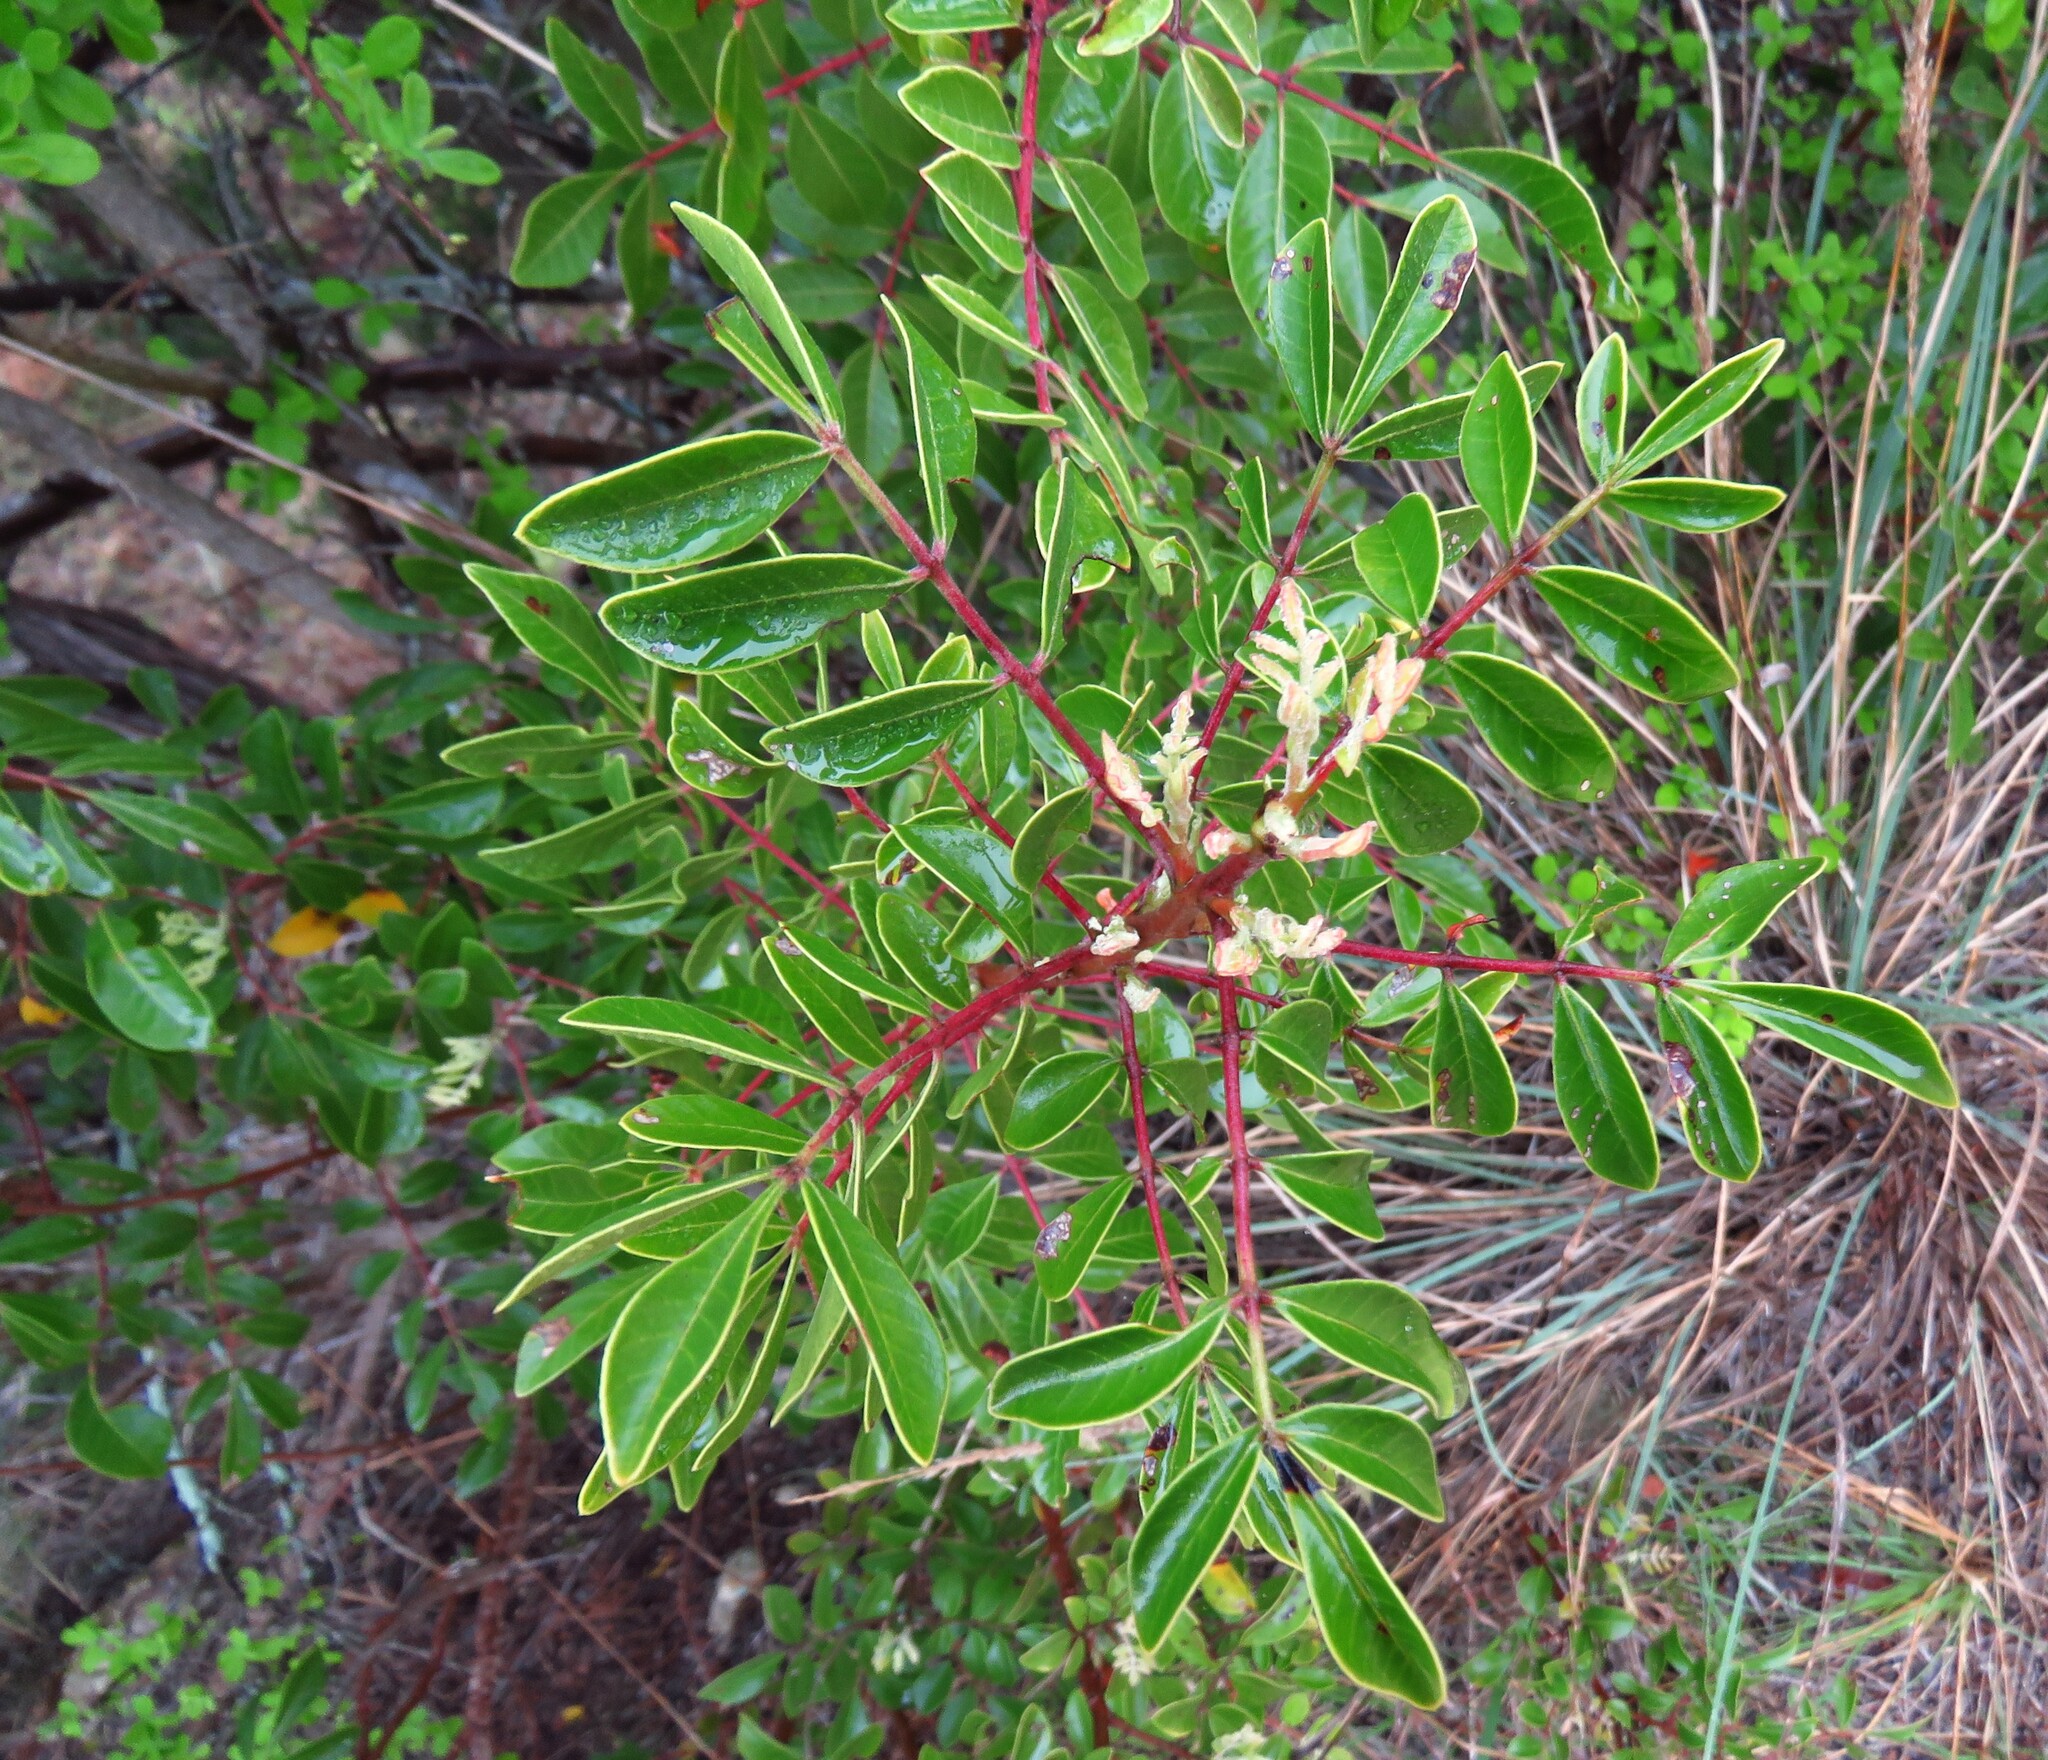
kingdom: Plantae
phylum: Tracheophyta
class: Magnoliopsida
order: Sapindales
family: Anacardiaceae
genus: Rhus
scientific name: Rhus virens
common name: Evergreen sumac
